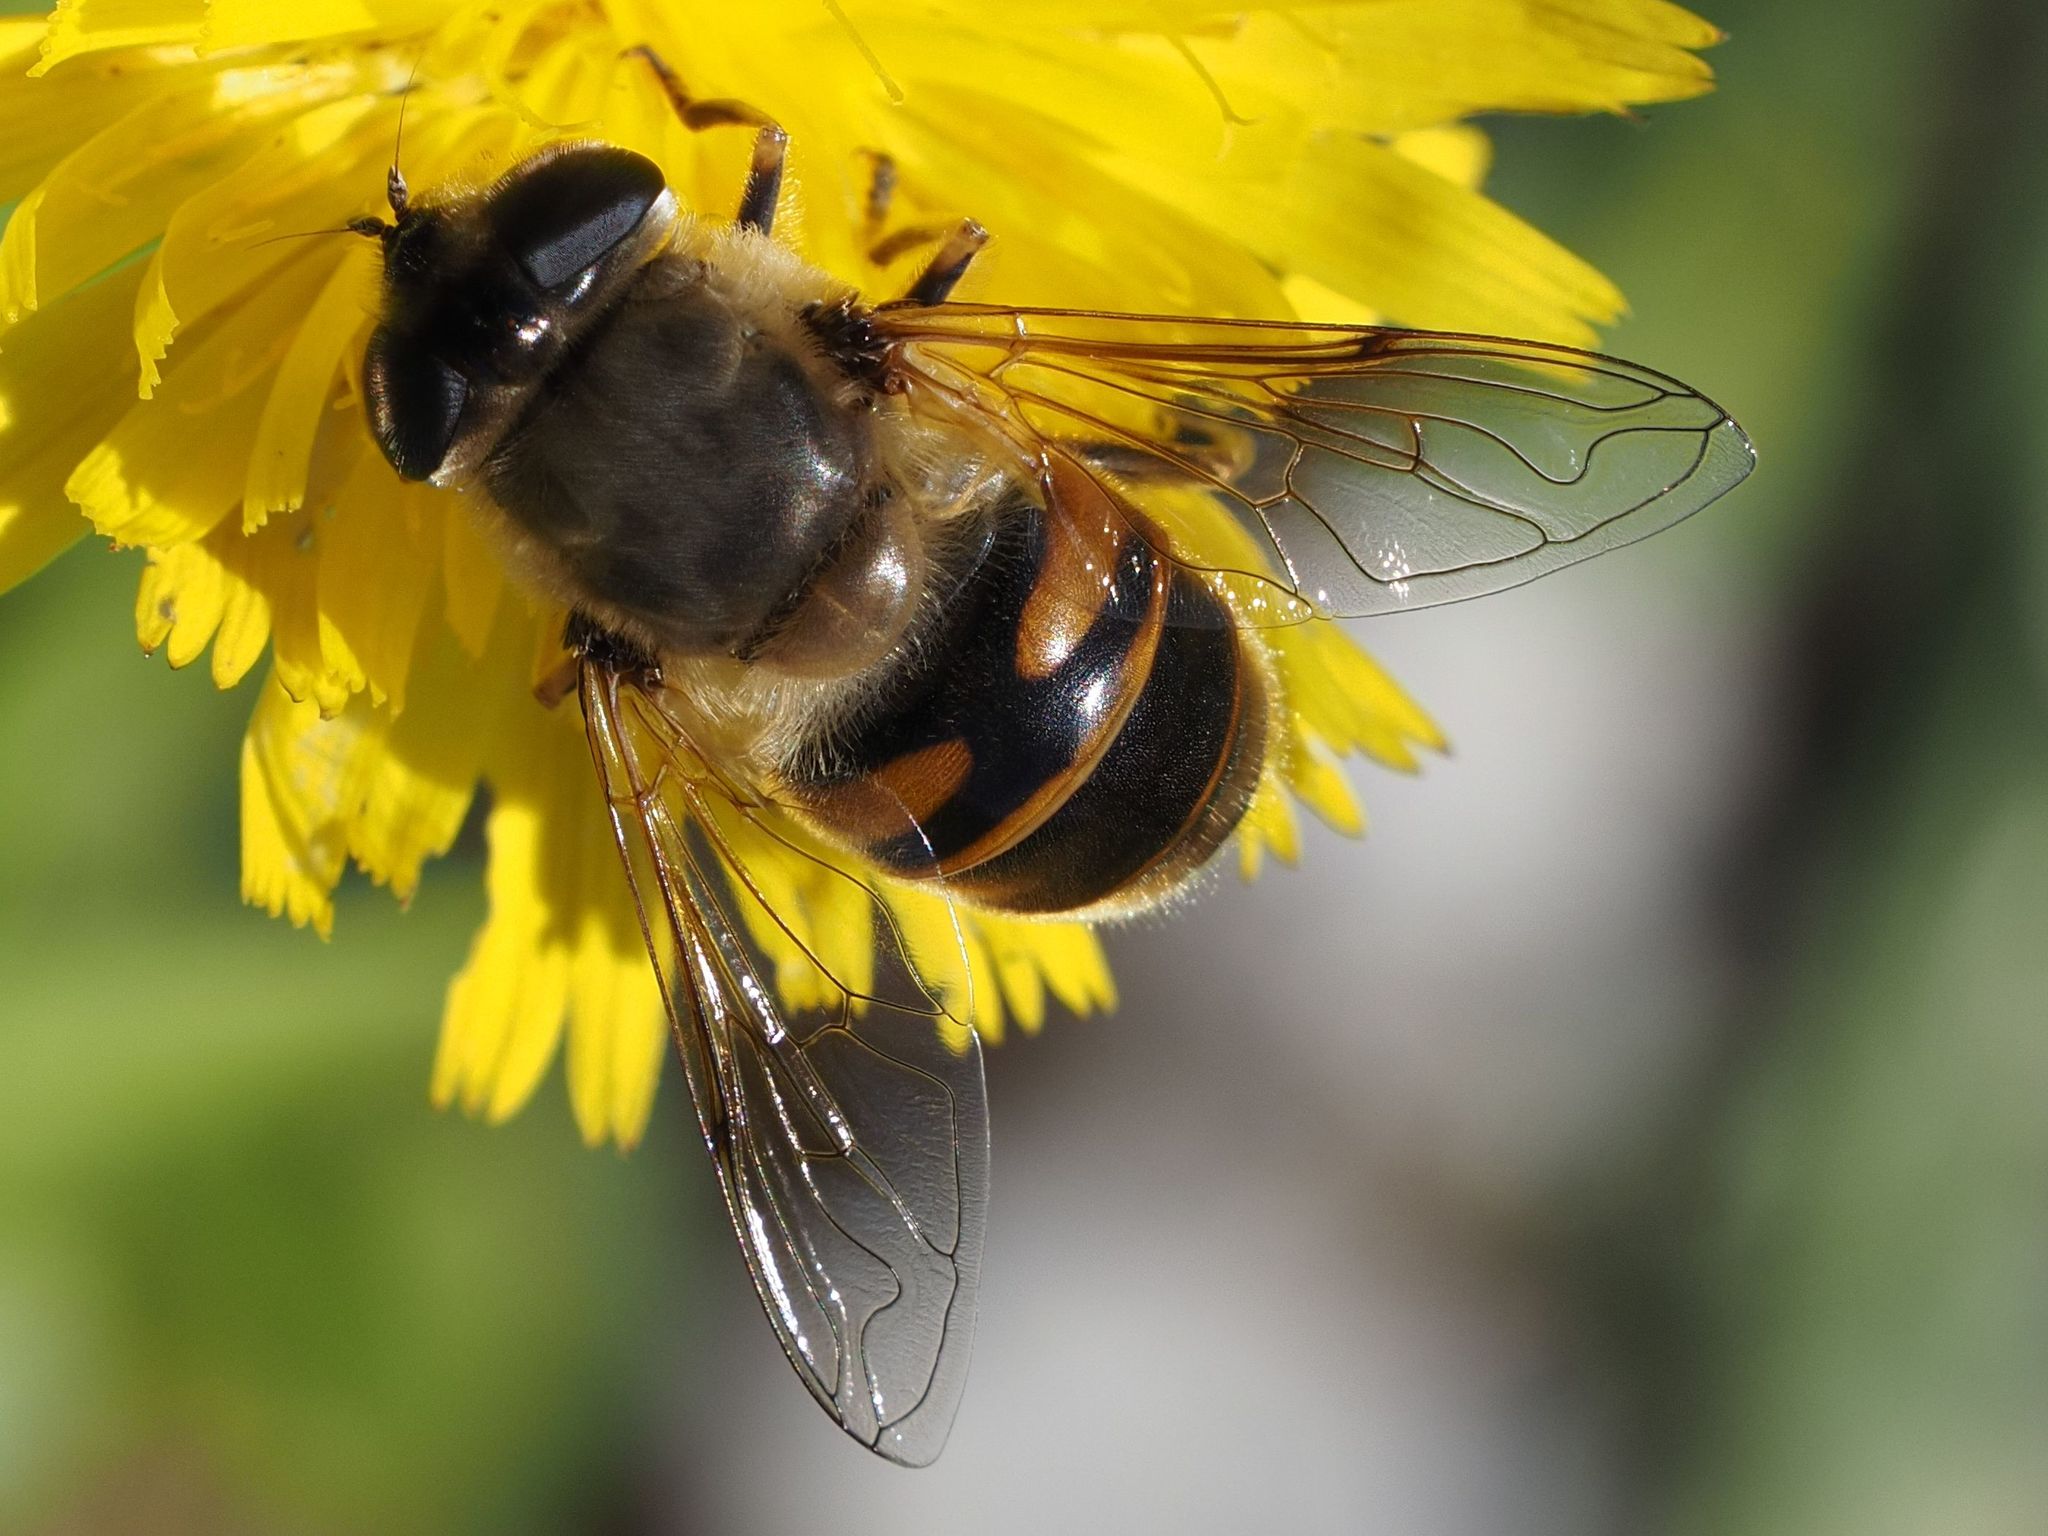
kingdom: Animalia
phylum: Arthropoda
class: Insecta
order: Diptera
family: Syrphidae
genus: Eristalis
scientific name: Eristalis tenax
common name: Drone fly
